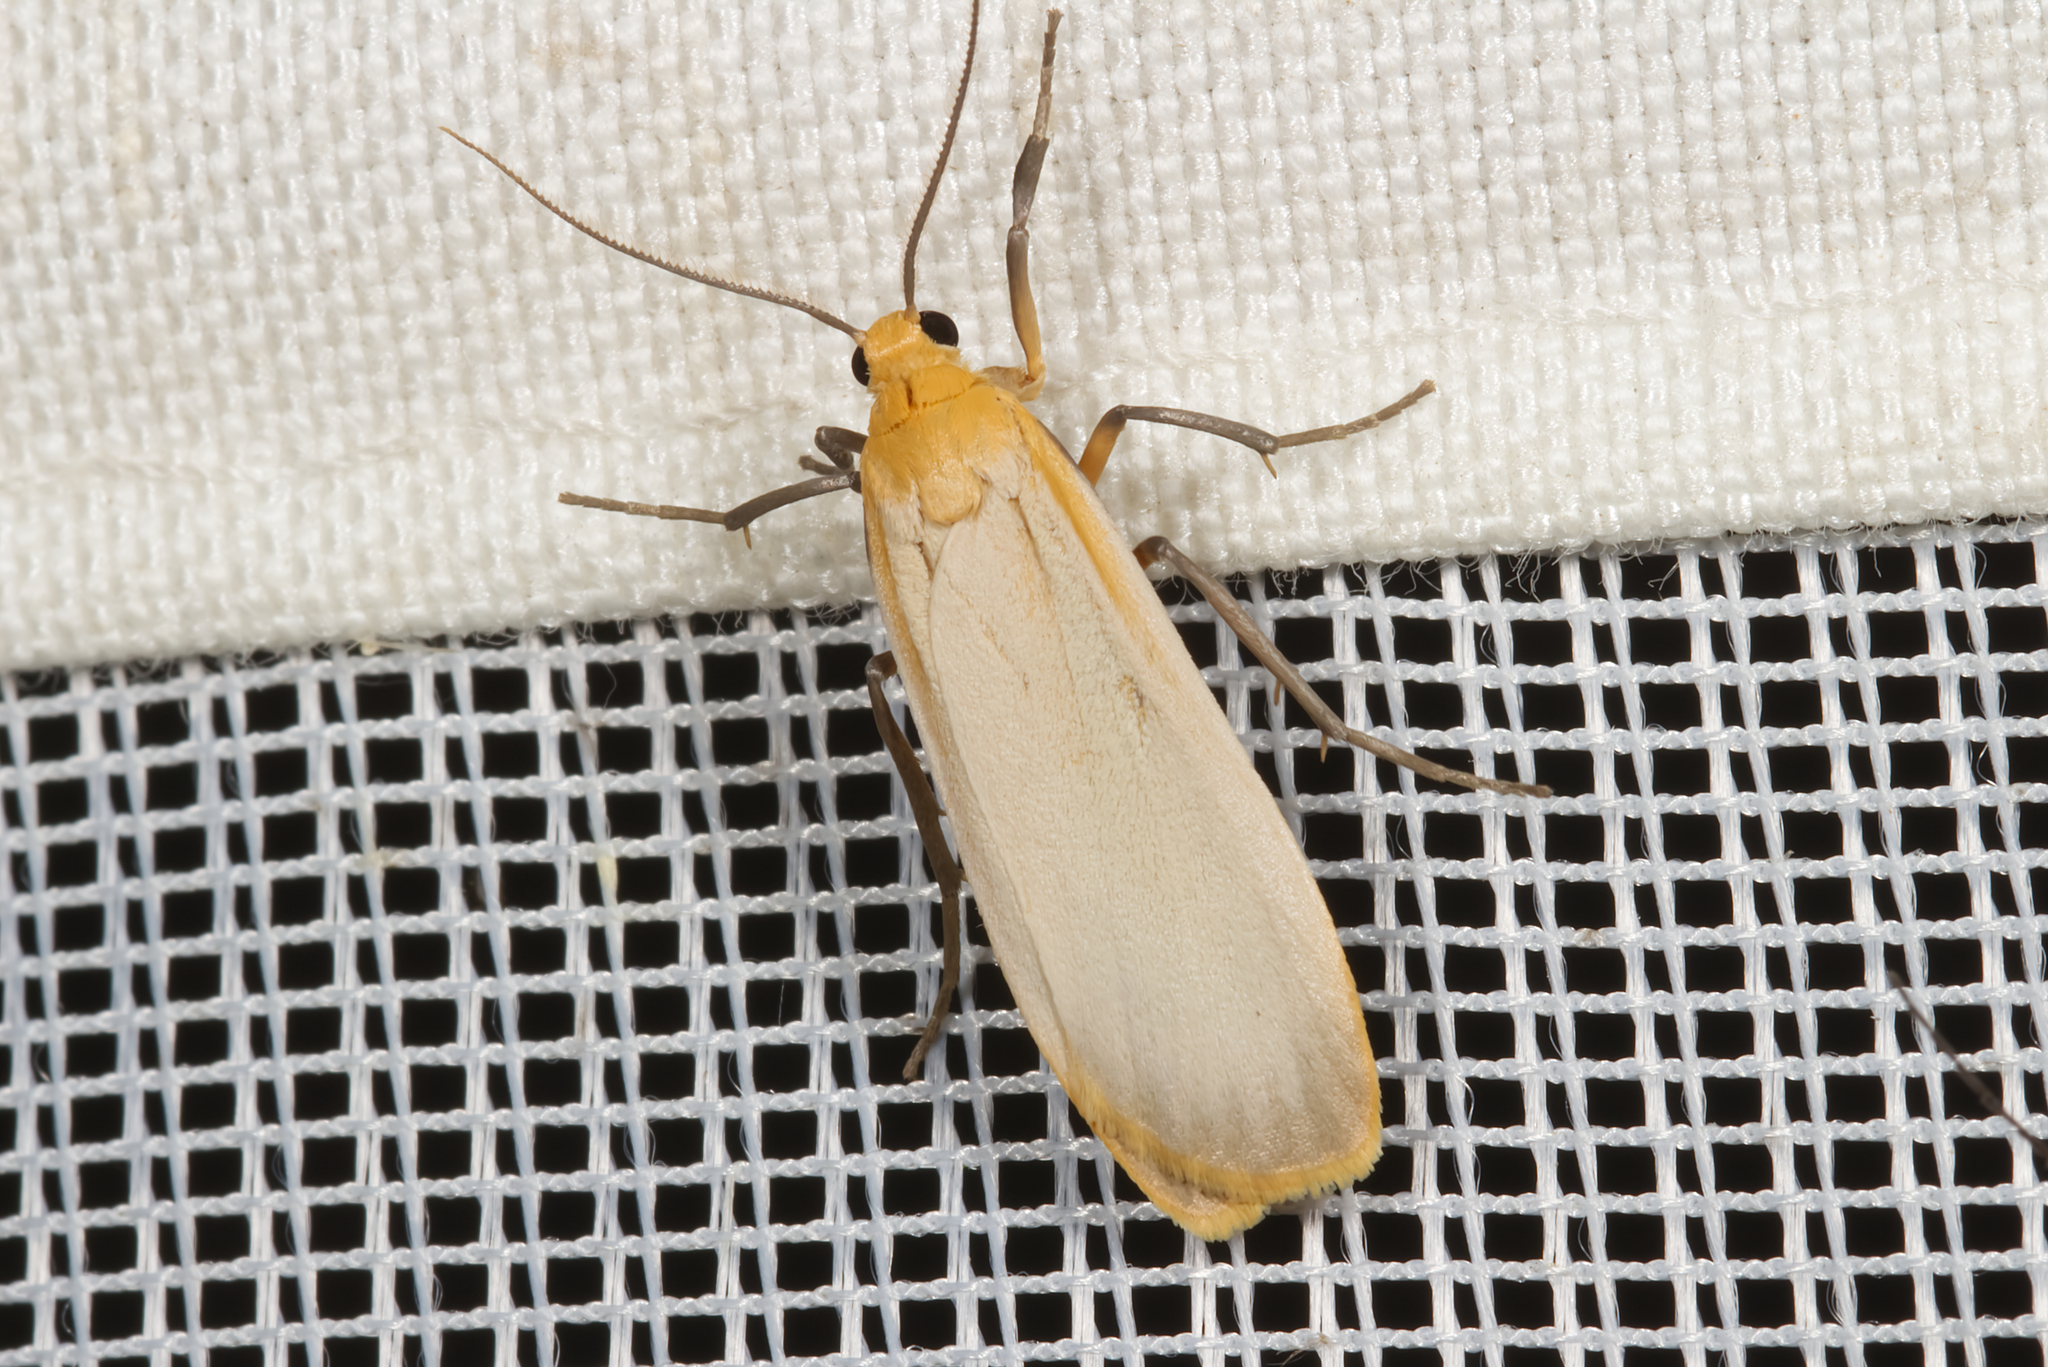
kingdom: Animalia
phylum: Arthropoda
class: Insecta
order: Lepidoptera
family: Erebidae
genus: Katha
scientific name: Katha depressa
